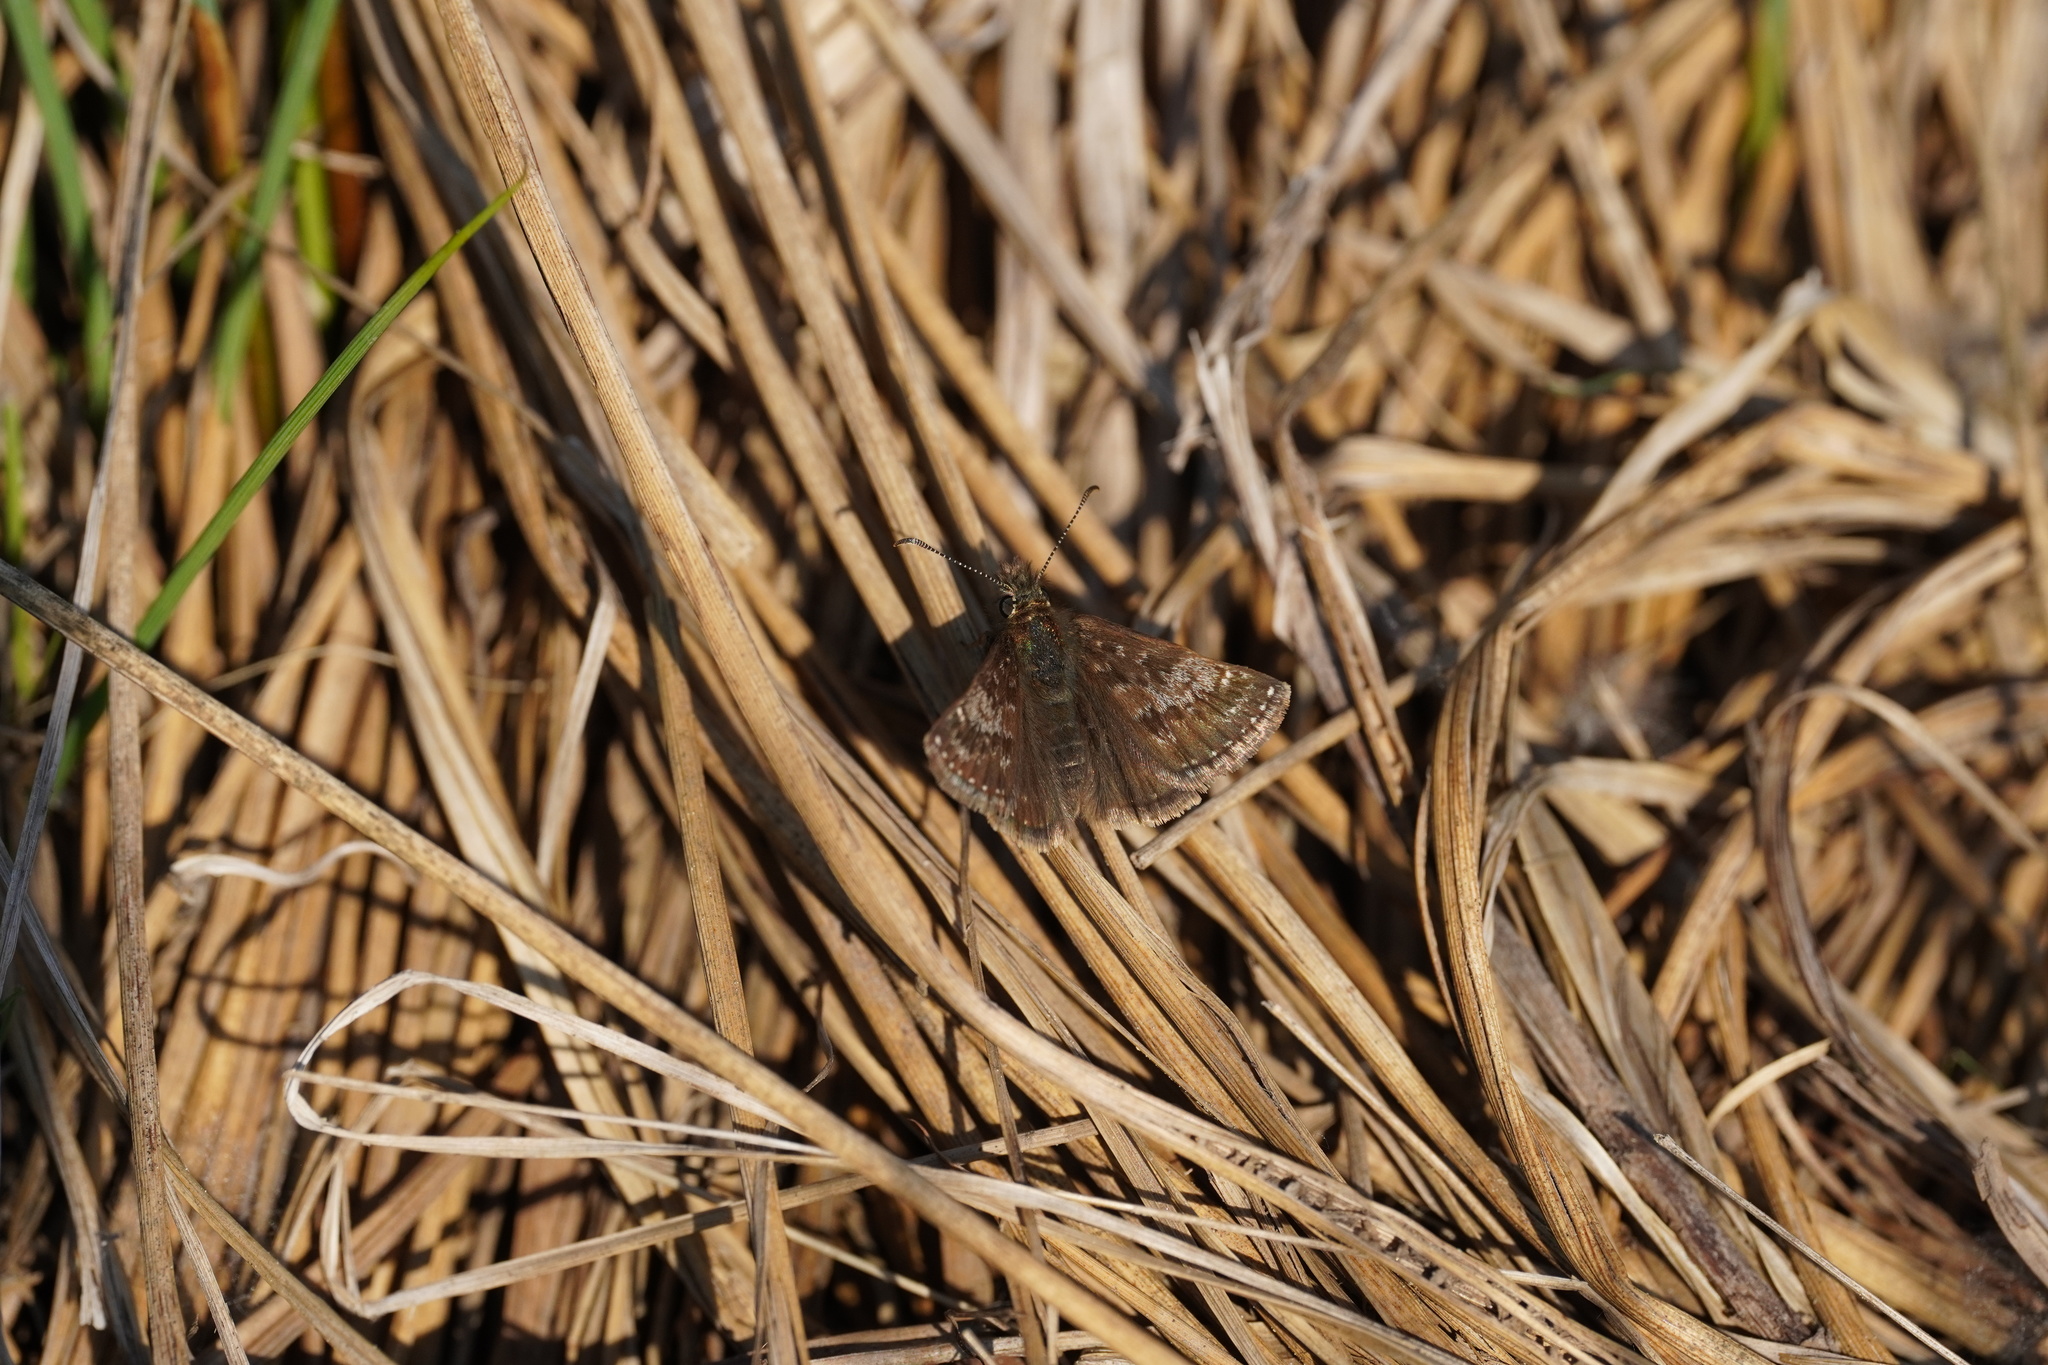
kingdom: Animalia
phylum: Arthropoda
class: Insecta
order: Lepidoptera
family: Hesperiidae
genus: Erynnis
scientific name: Erynnis tages
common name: Dingy skipper
